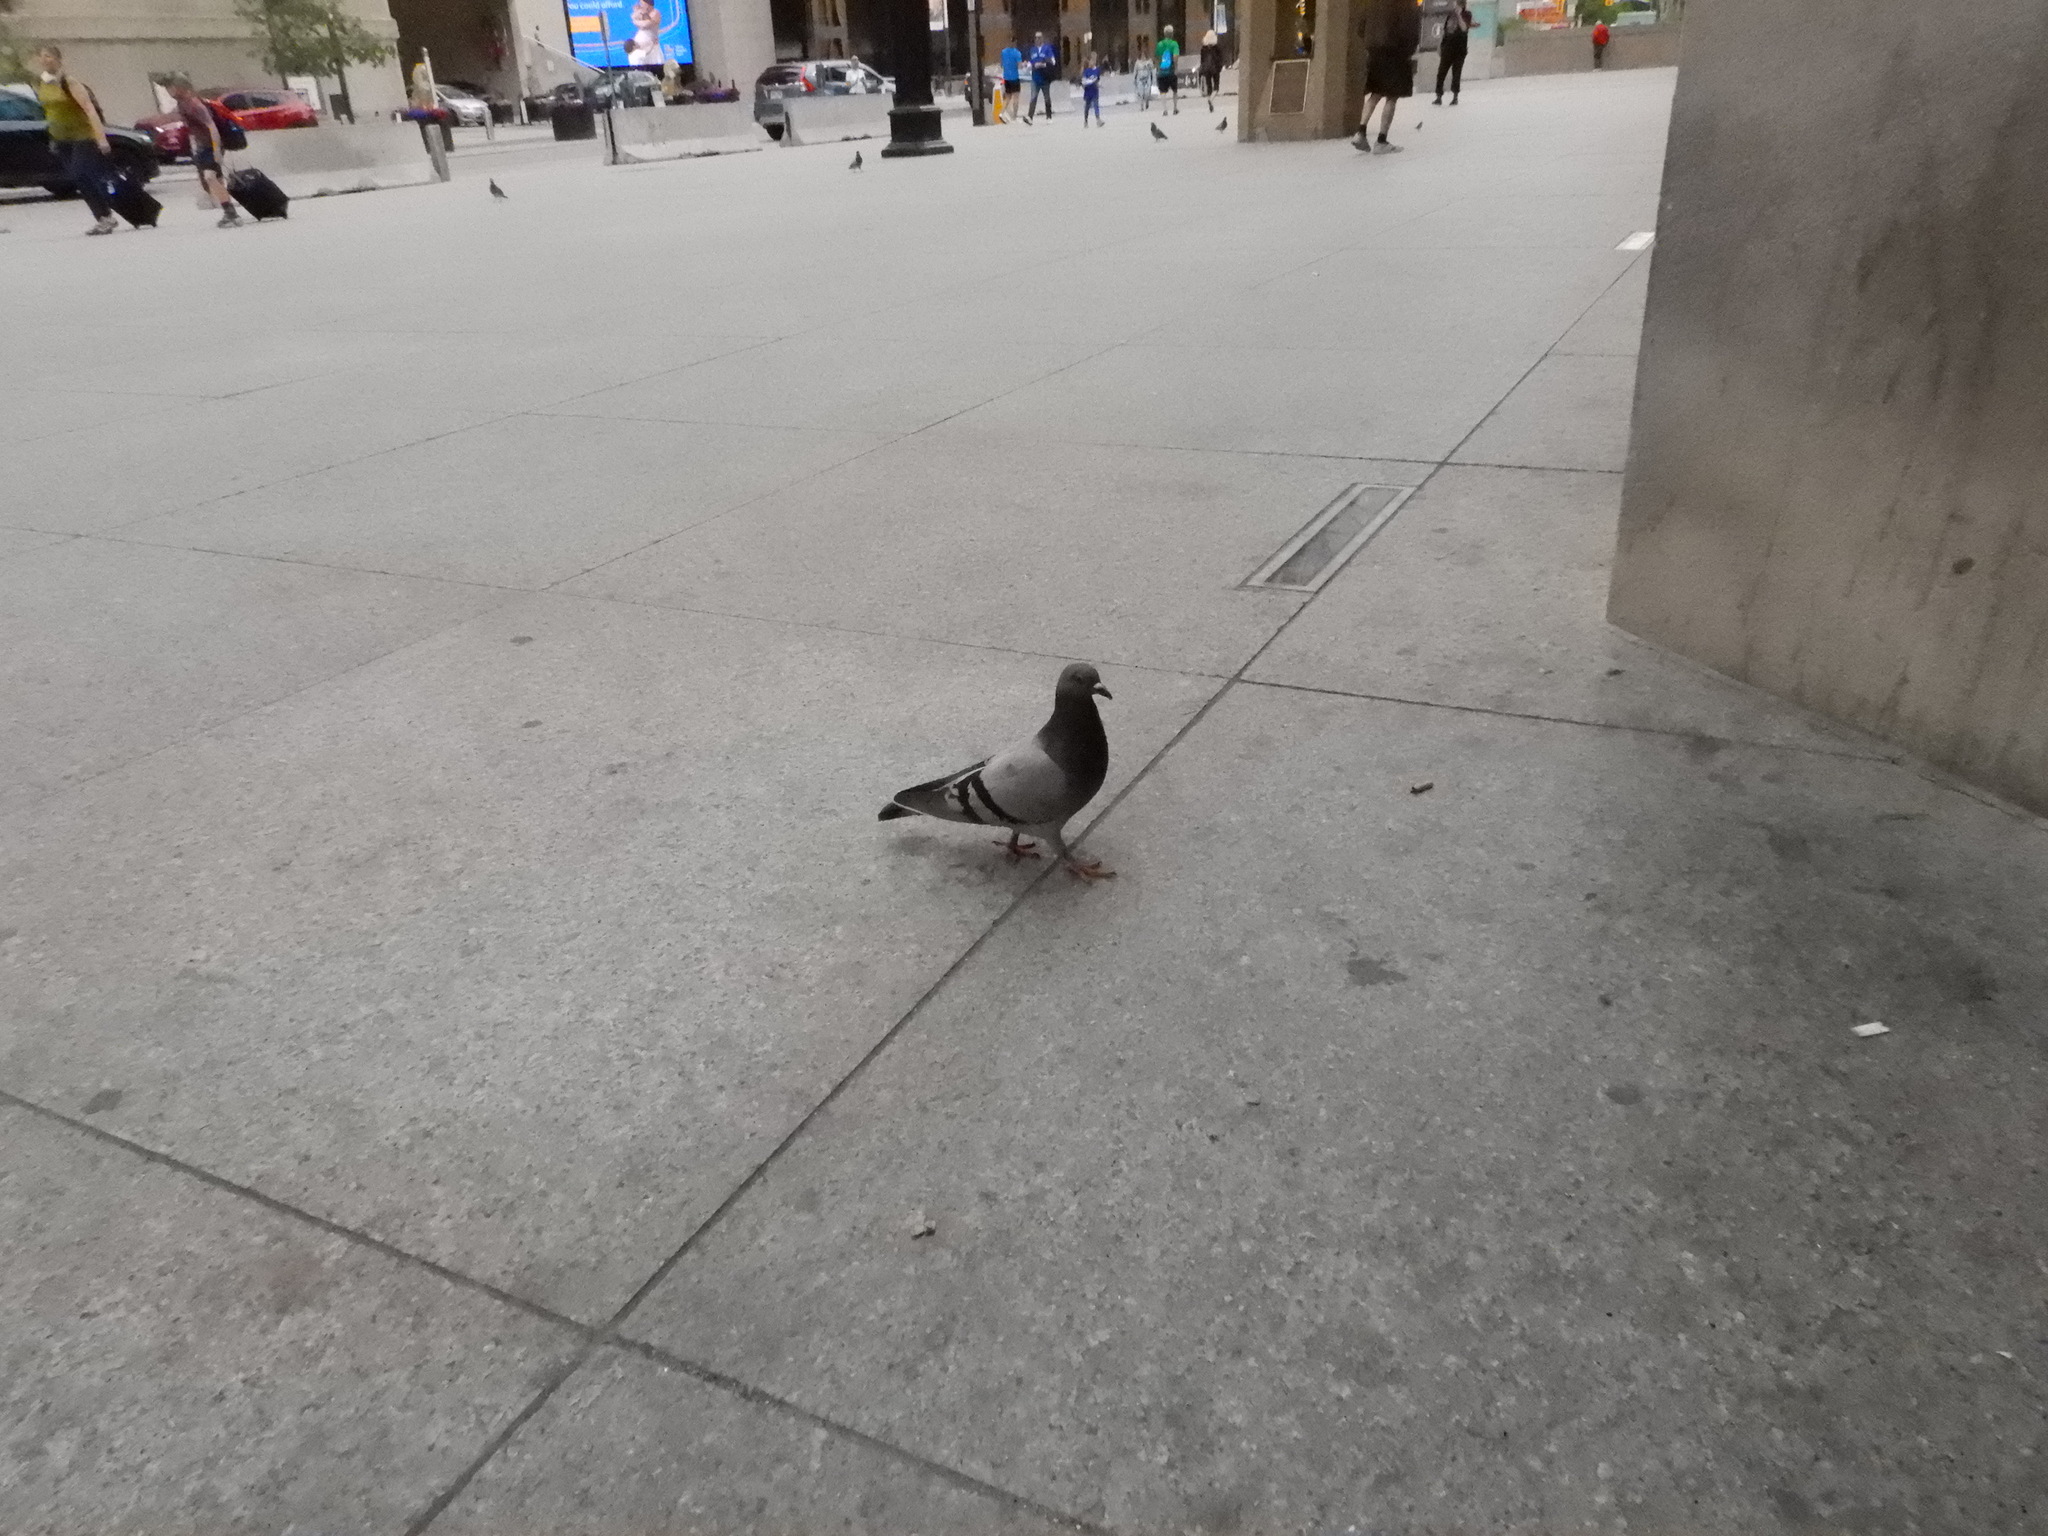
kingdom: Animalia
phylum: Chordata
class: Aves
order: Columbiformes
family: Columbidae
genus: Columba
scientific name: Columba livia
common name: Rock pigeon
